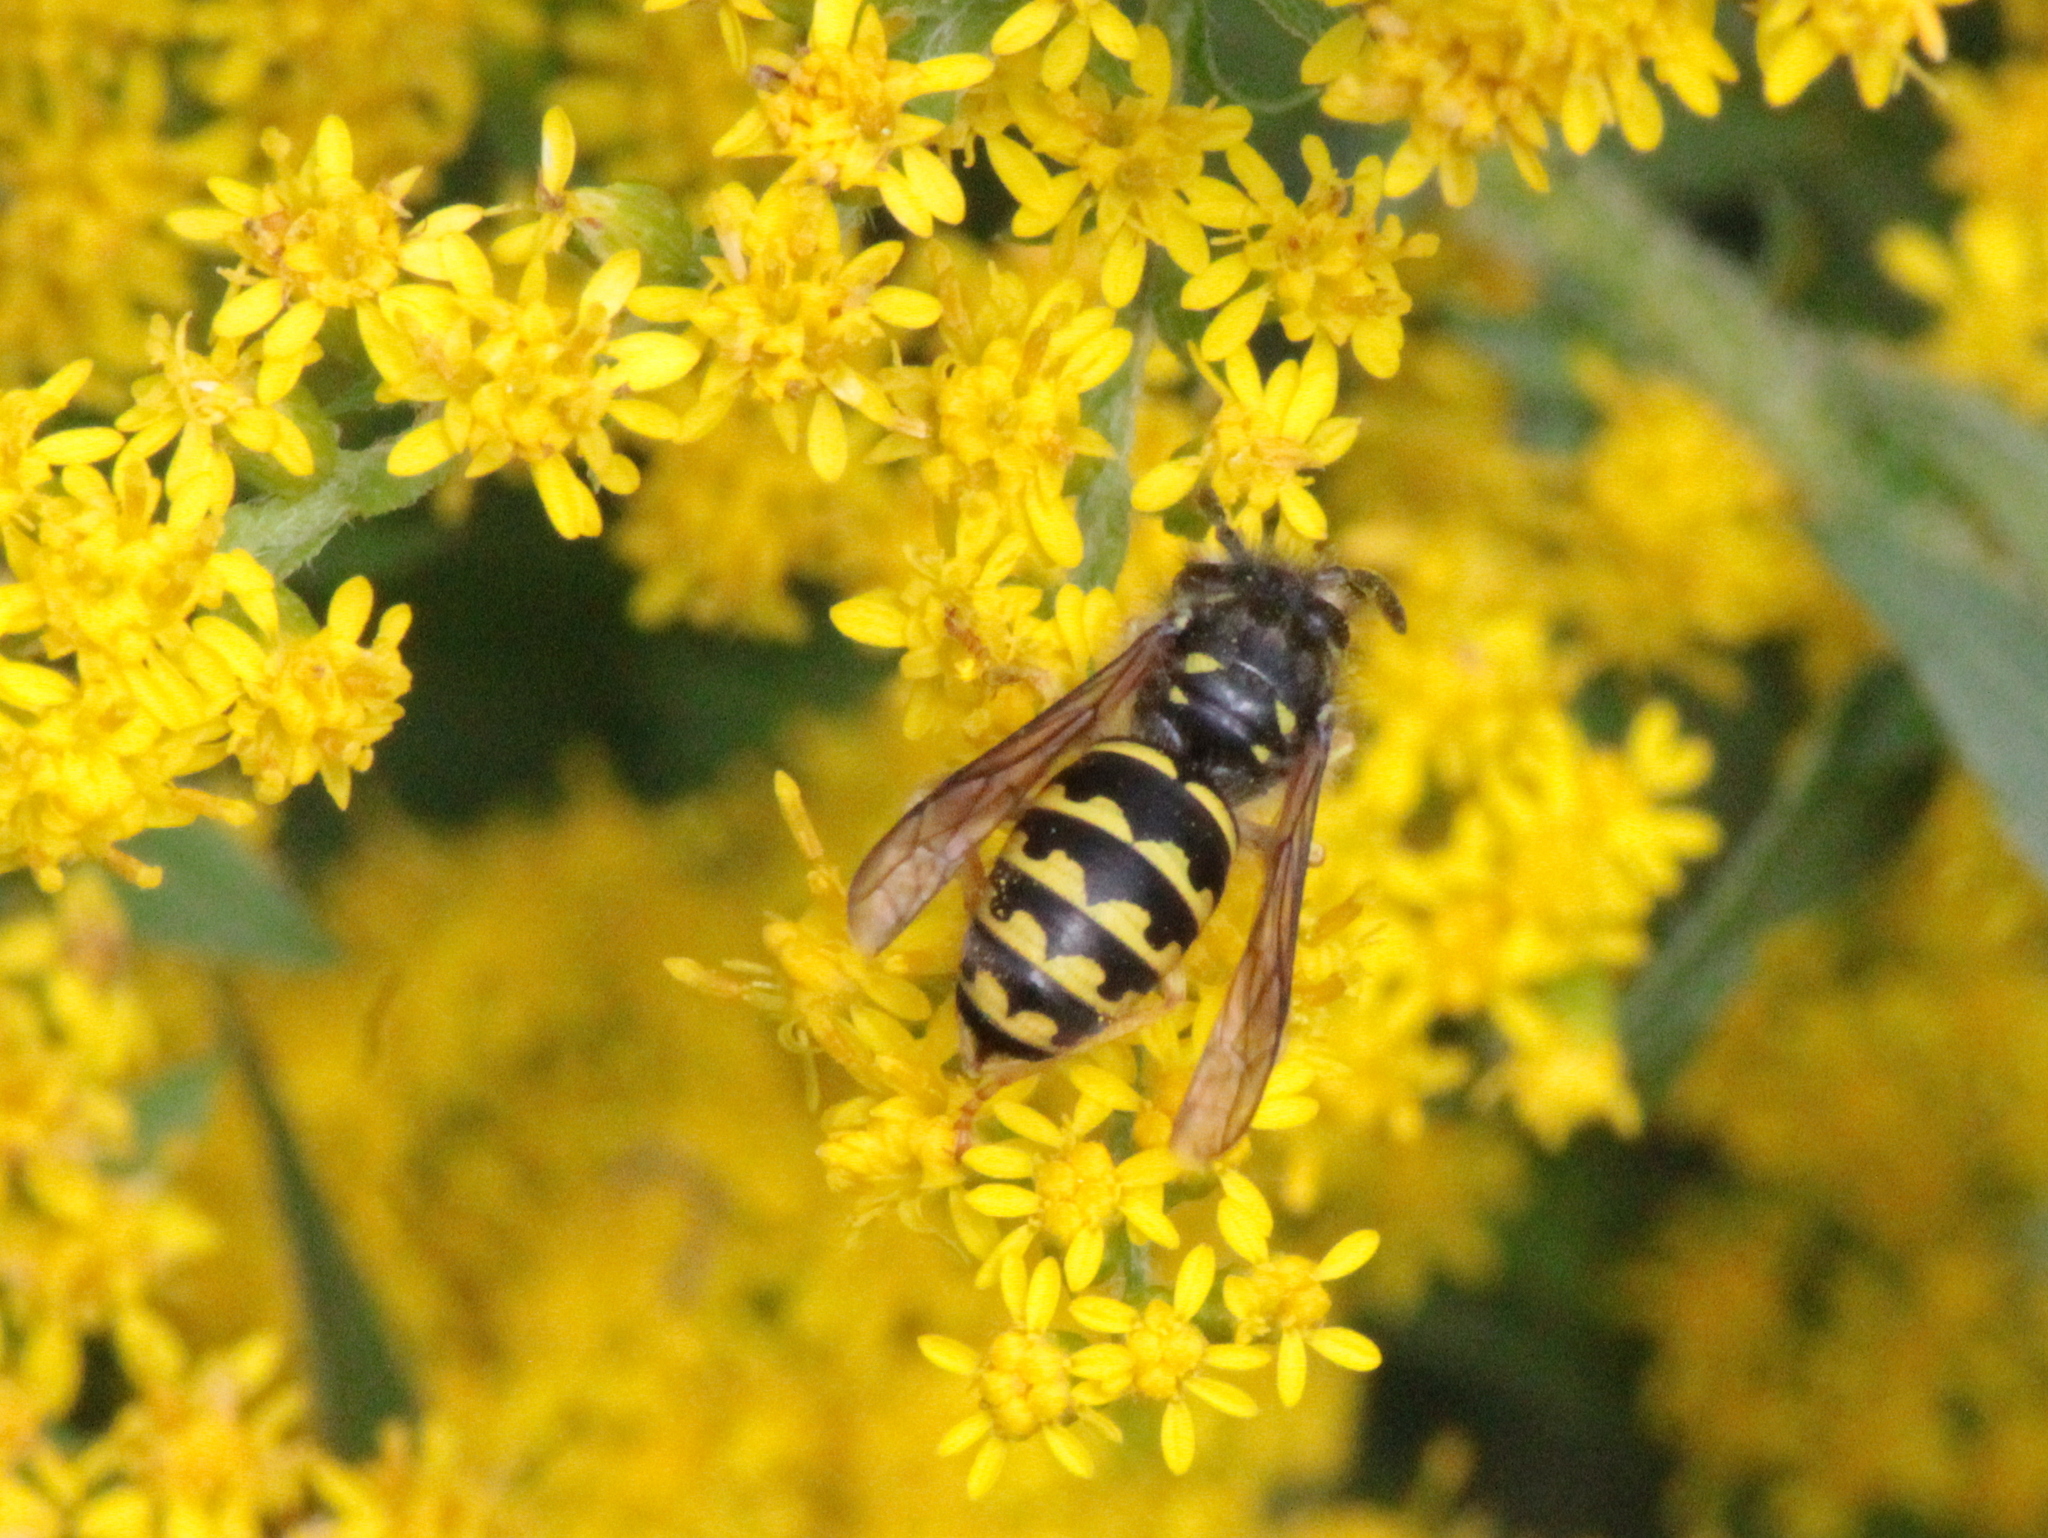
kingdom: Animalia
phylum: Arthropoda
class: Insecta
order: Hymenoptera
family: Vespidae
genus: Dolichovespula
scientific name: Dolichovespula arenaria
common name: Aerial yellowjacket
